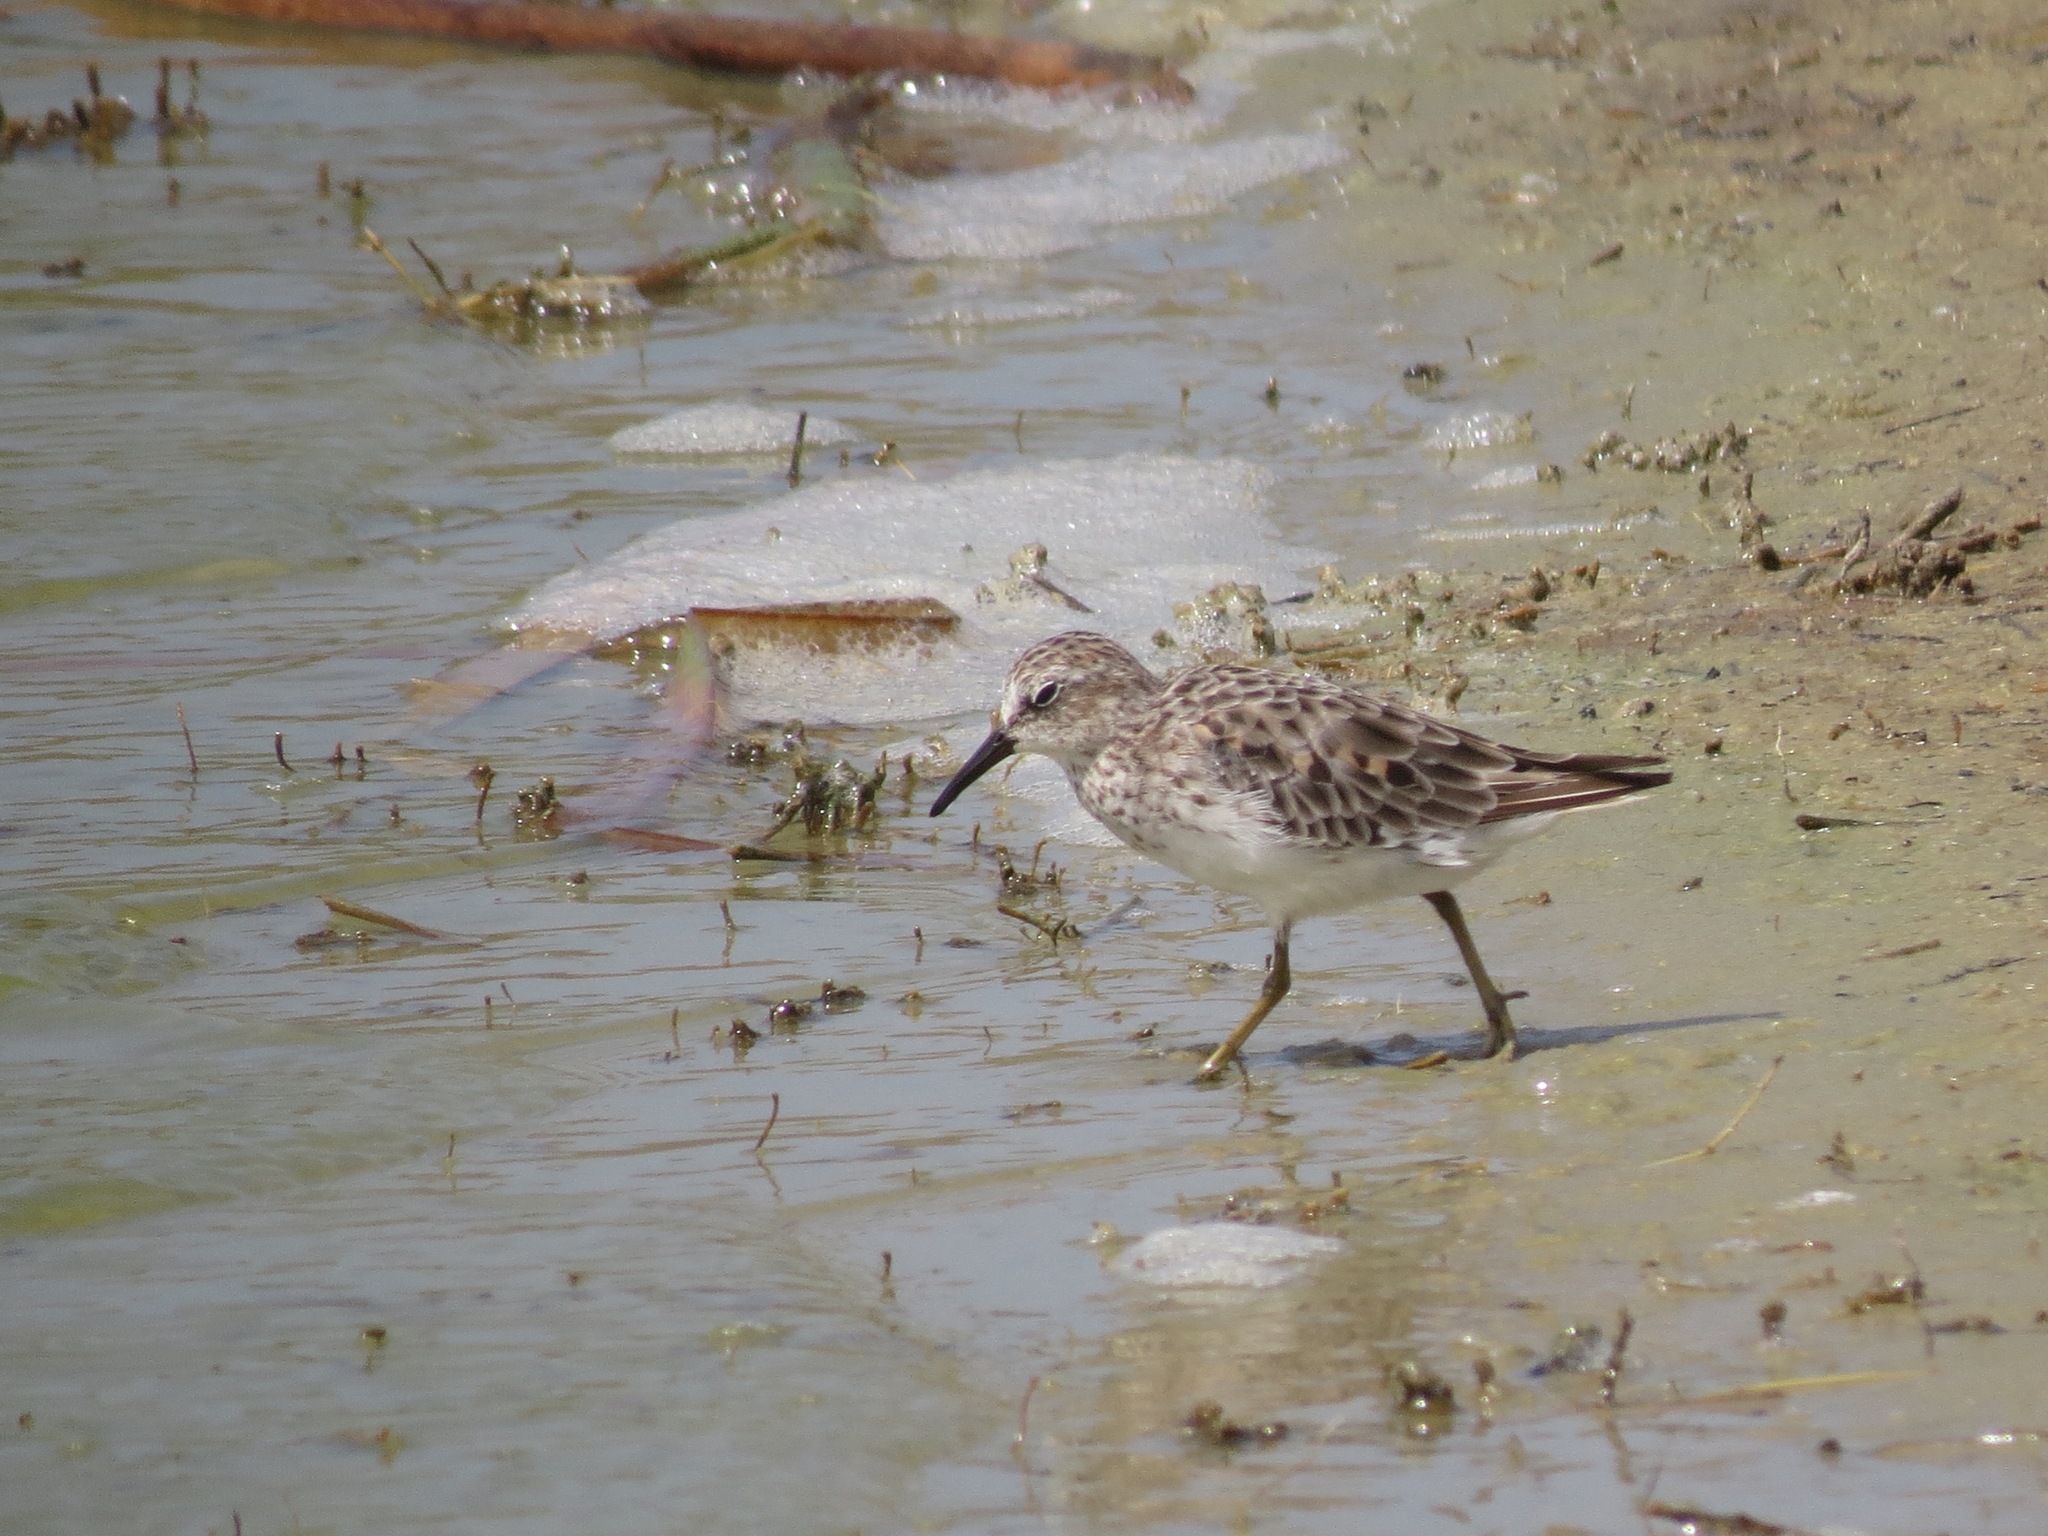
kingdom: Animalia
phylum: Chordata
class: Aves
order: Charadriiformes
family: Scolopacidae
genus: Calidris
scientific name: Calidris minutilla
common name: Least sandpiper
